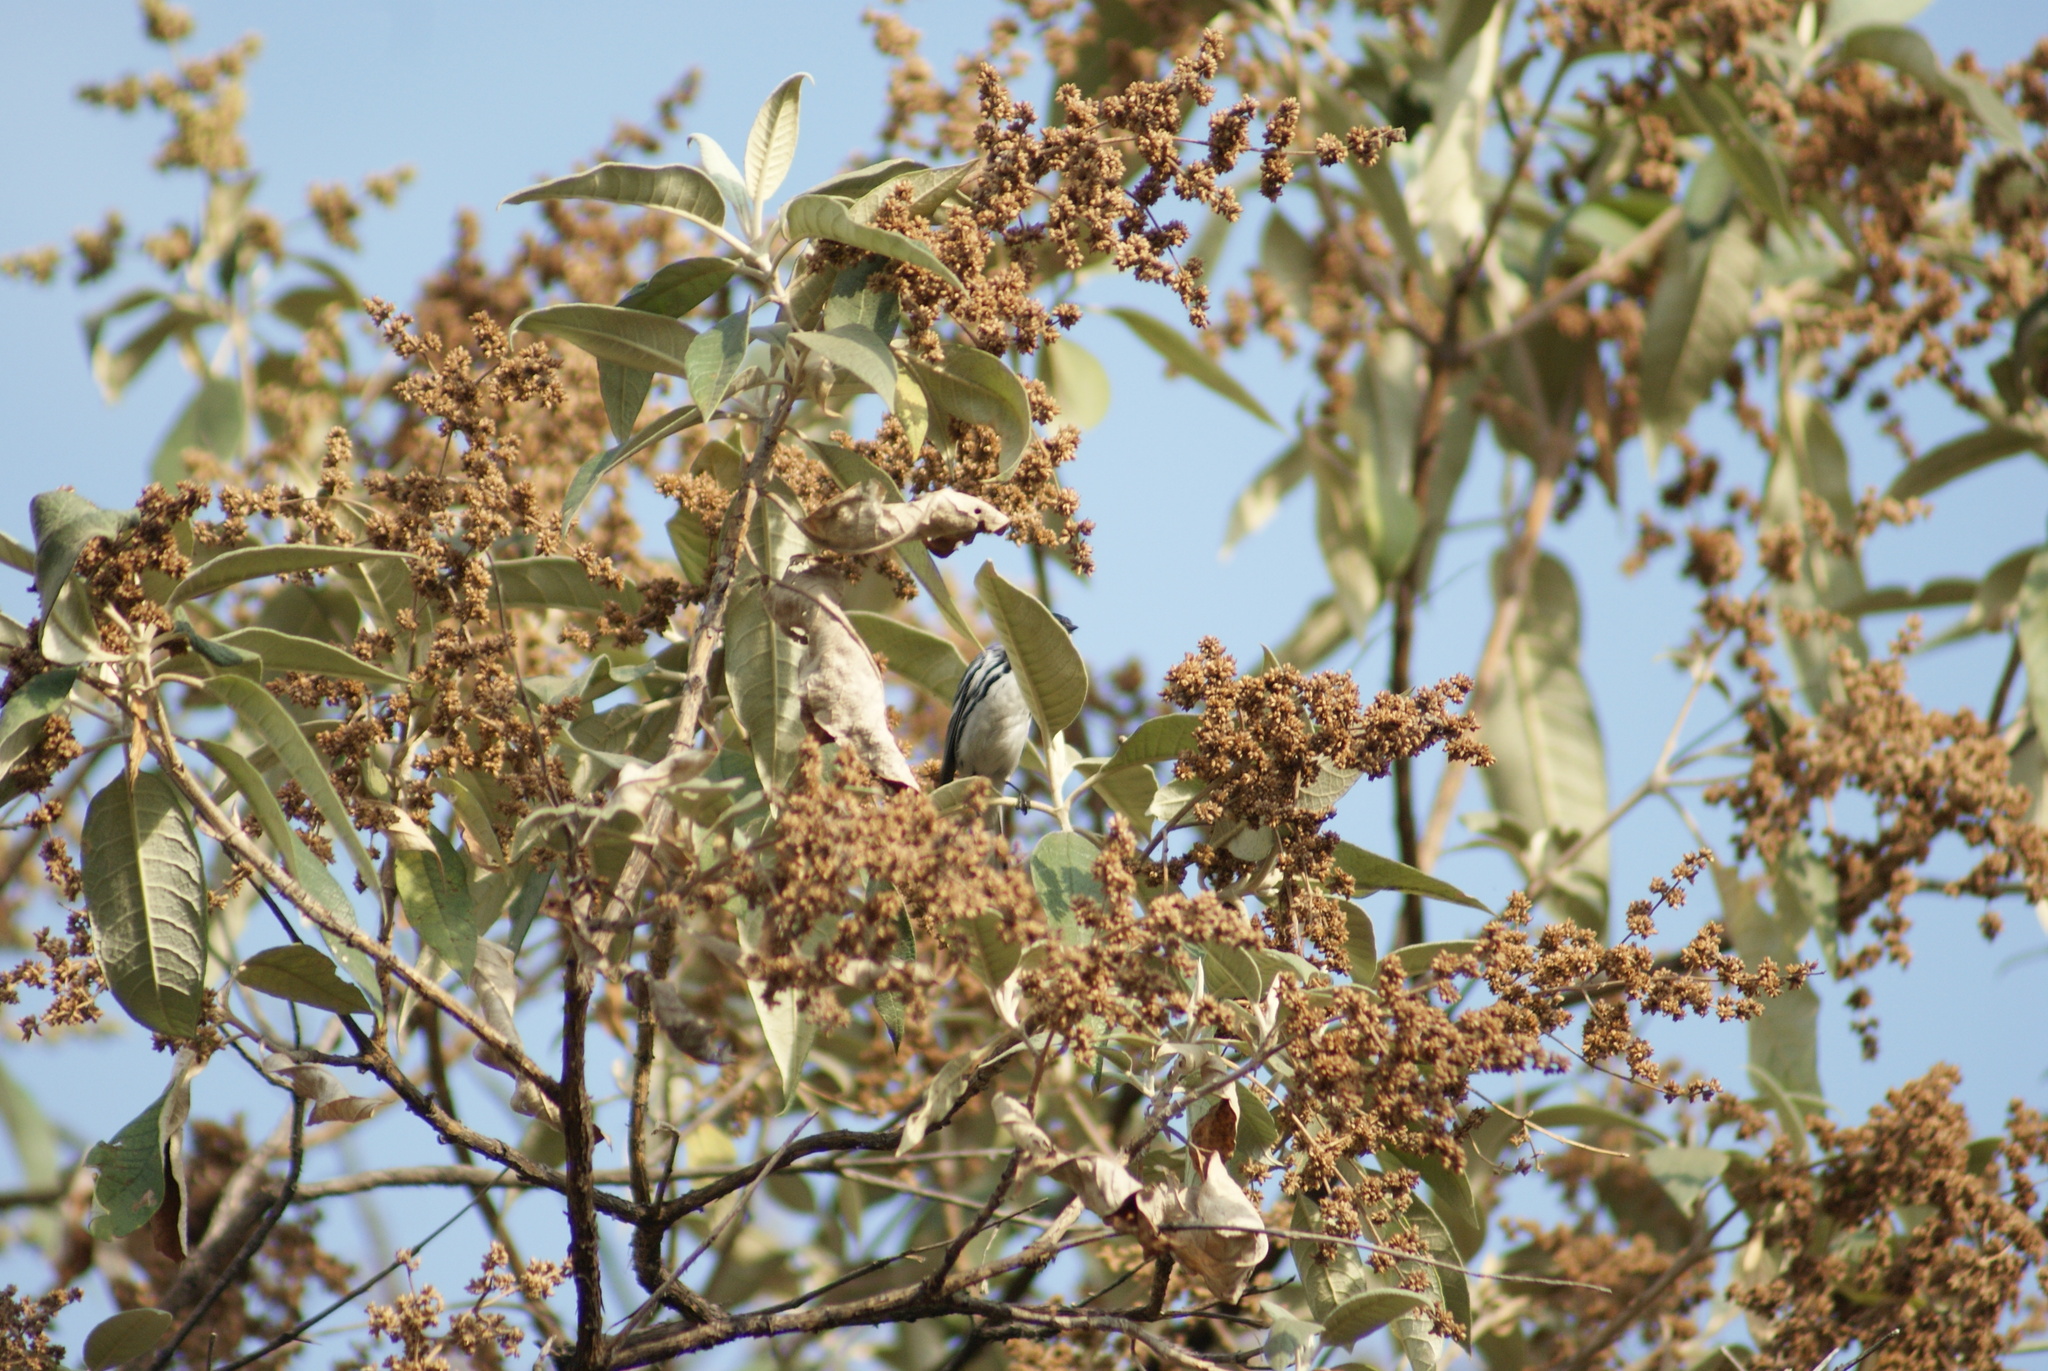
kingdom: Plantae
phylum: Tracheophyta
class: Magnoliopsida
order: Lamiales
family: Scrophulariaceae
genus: Buddleja
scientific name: Buddleja cordata
